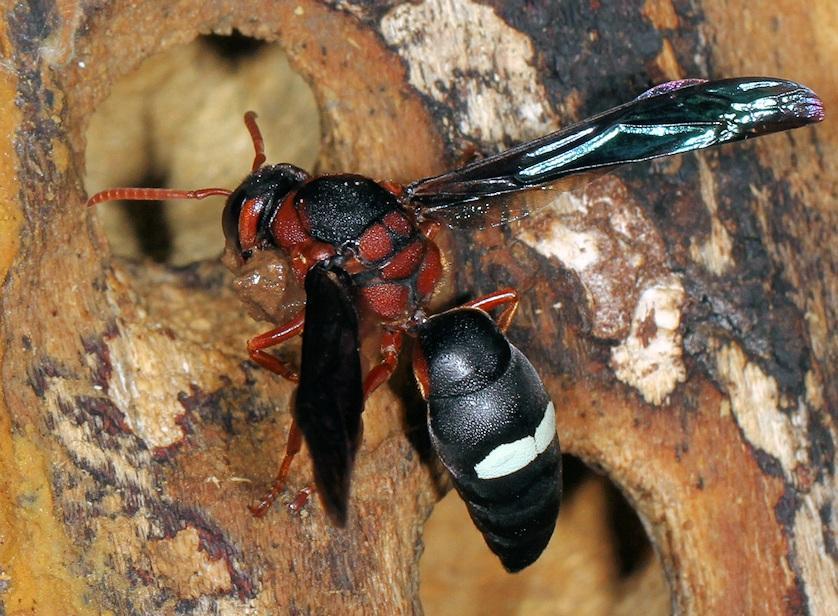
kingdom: Animalia
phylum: Arthropoda
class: Insecta
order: Hymenoptera
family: Eumenidae
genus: Anterhynchium
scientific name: Anterhynchium grayi
